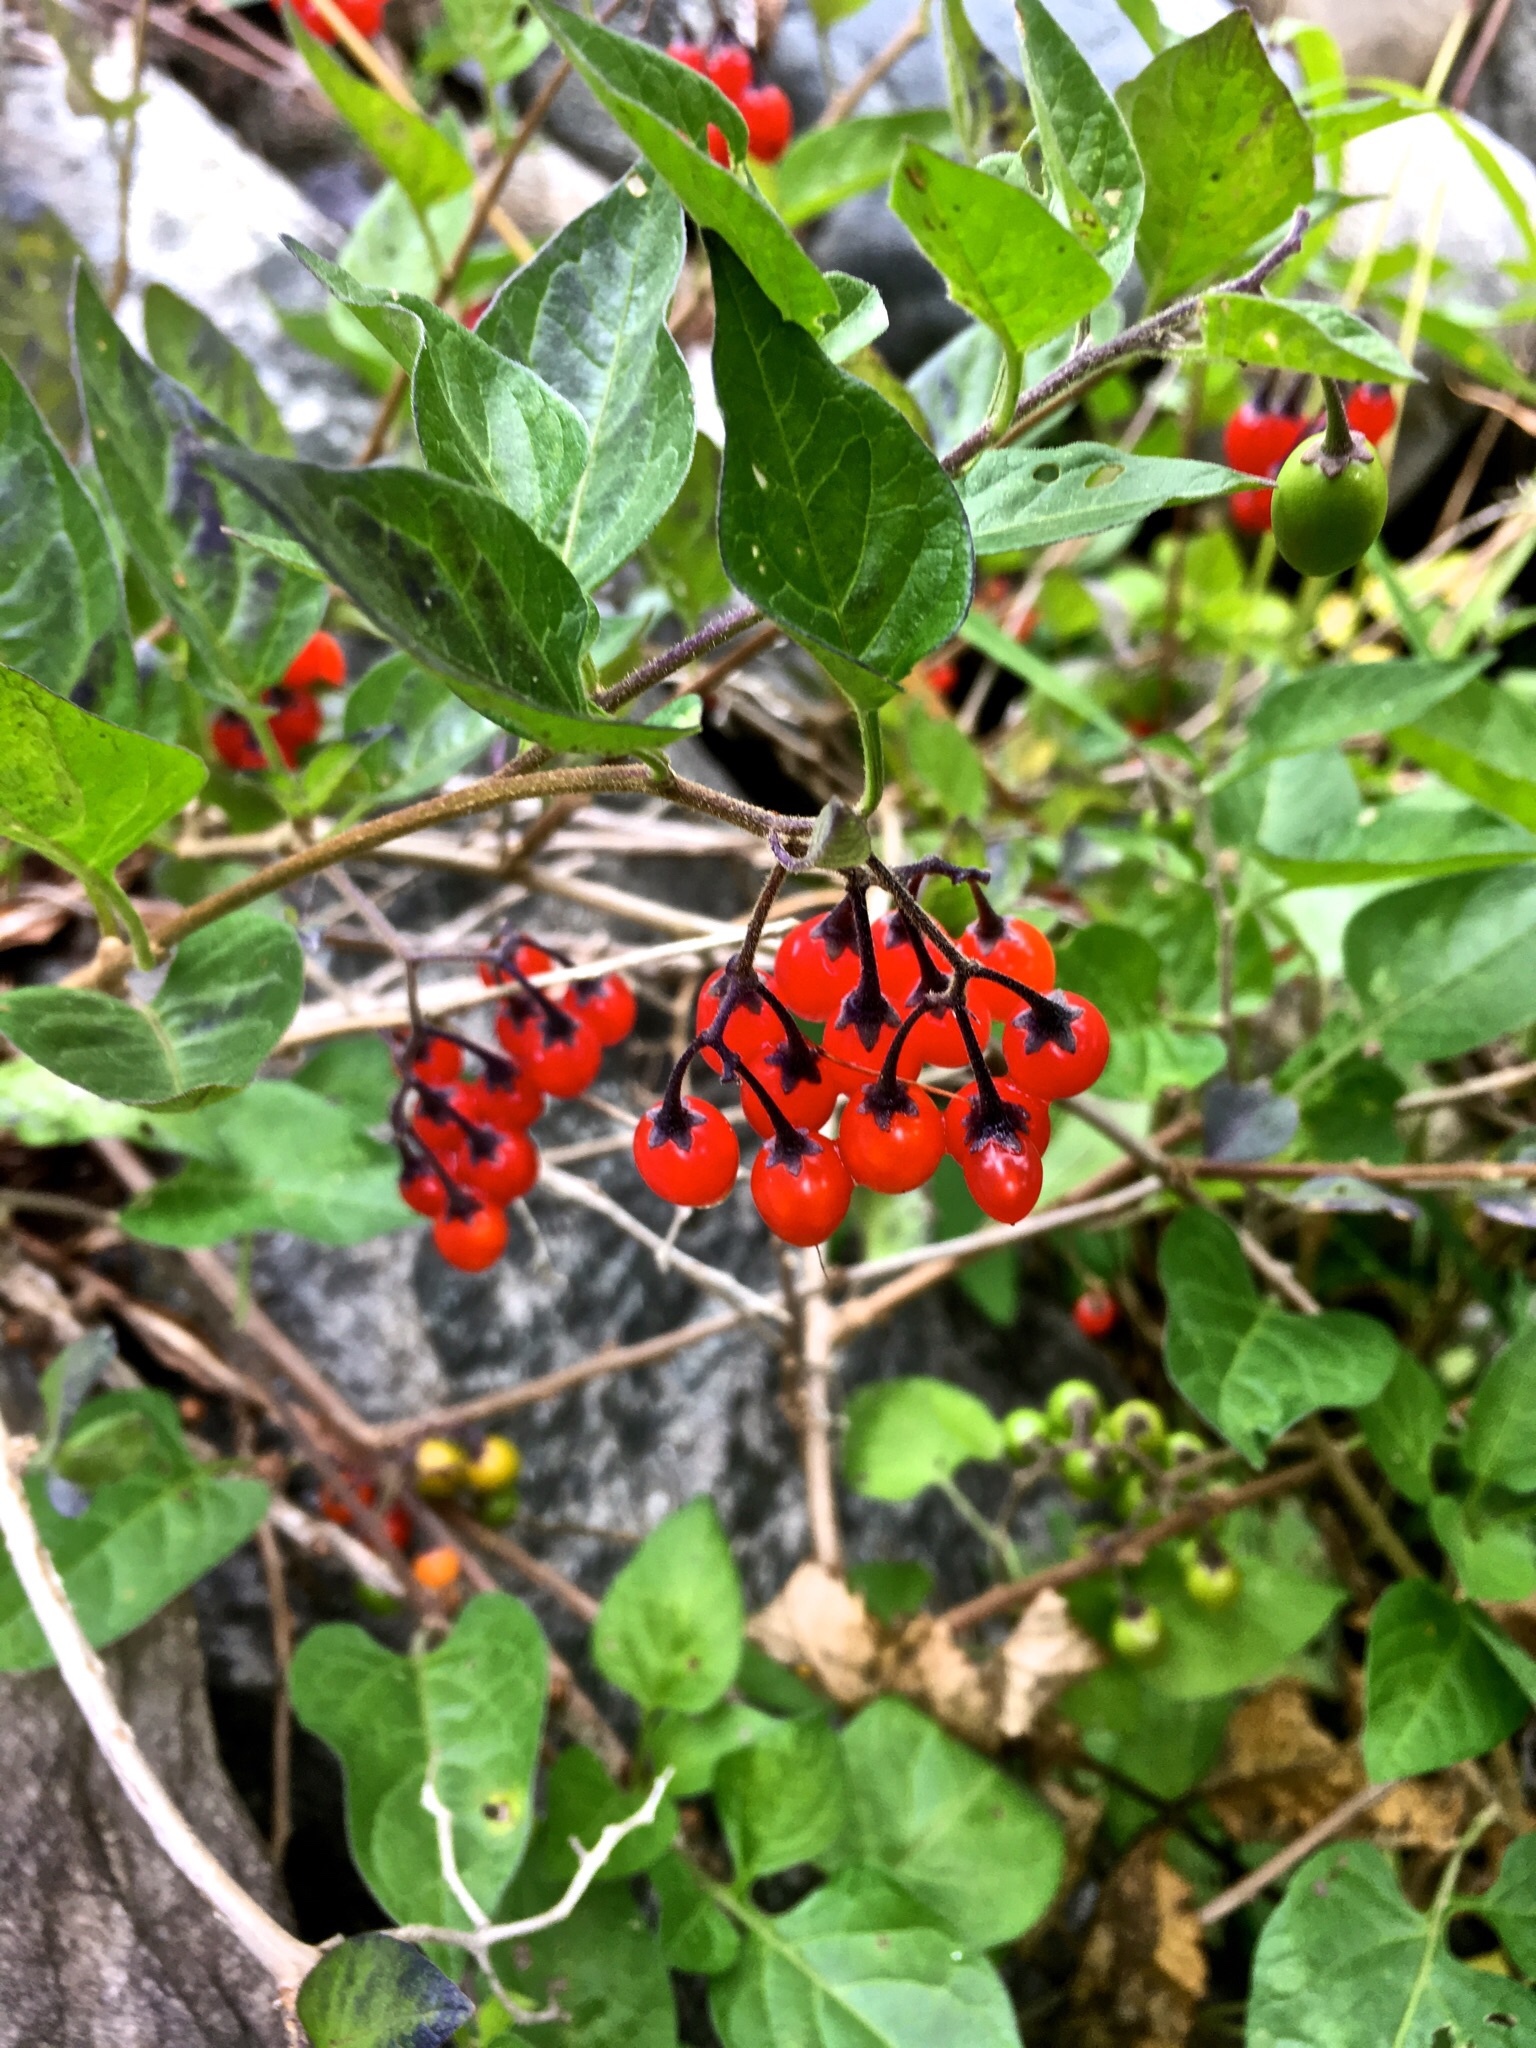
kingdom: Plantae
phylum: Tracheophyta
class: Magnoliopsida
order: Solanales
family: Solanaceae
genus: Solanum
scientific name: Solanum dulcamara
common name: Climbing nightshade
